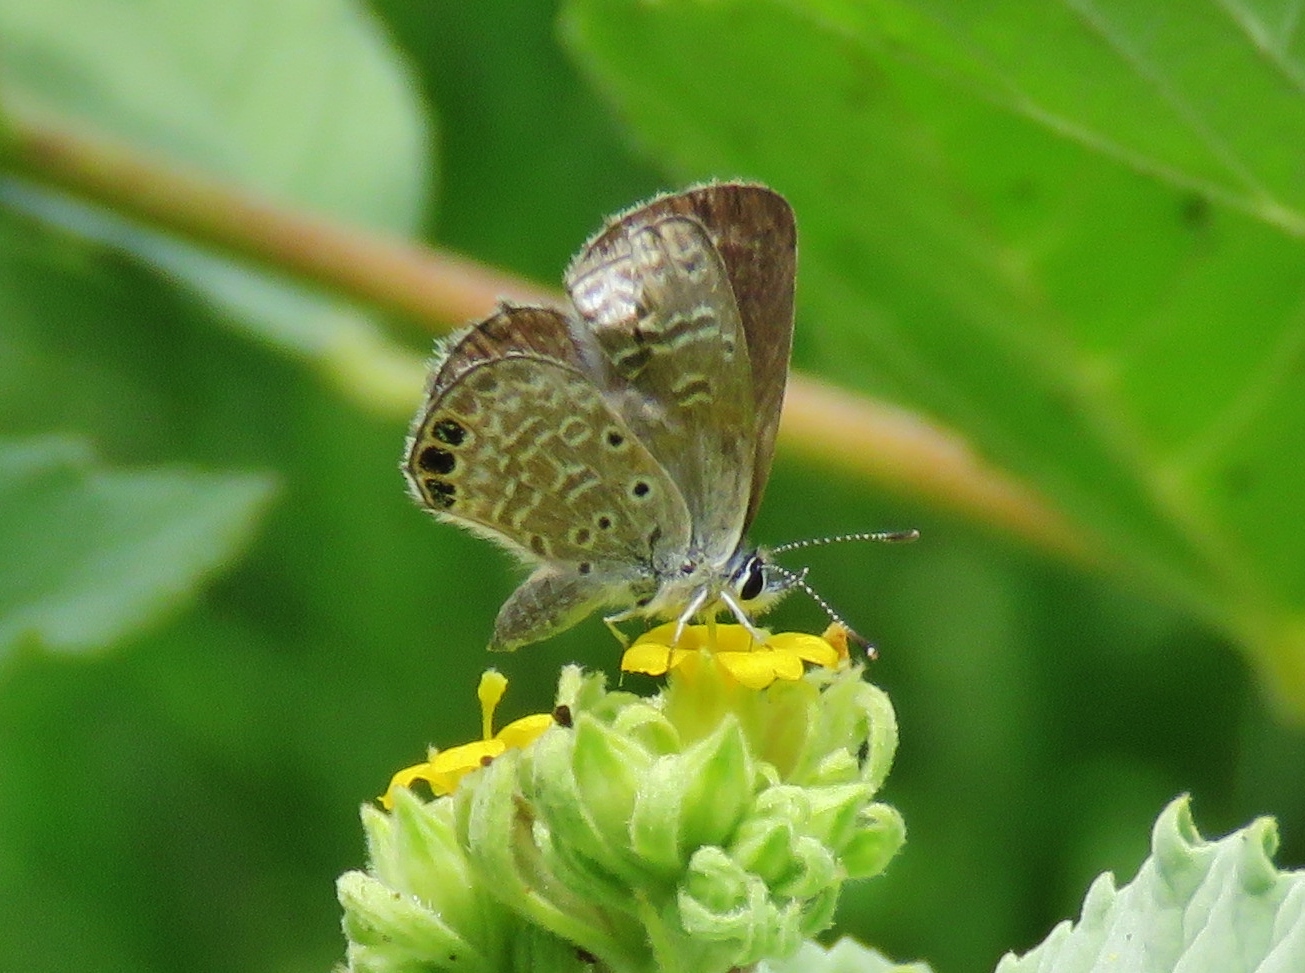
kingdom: Animalia
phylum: Arthropoda
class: Insecta
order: Lepidoptera
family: Lycaenidae
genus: Hemiargus
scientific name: Hemiargus ramon
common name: Ramon blue
